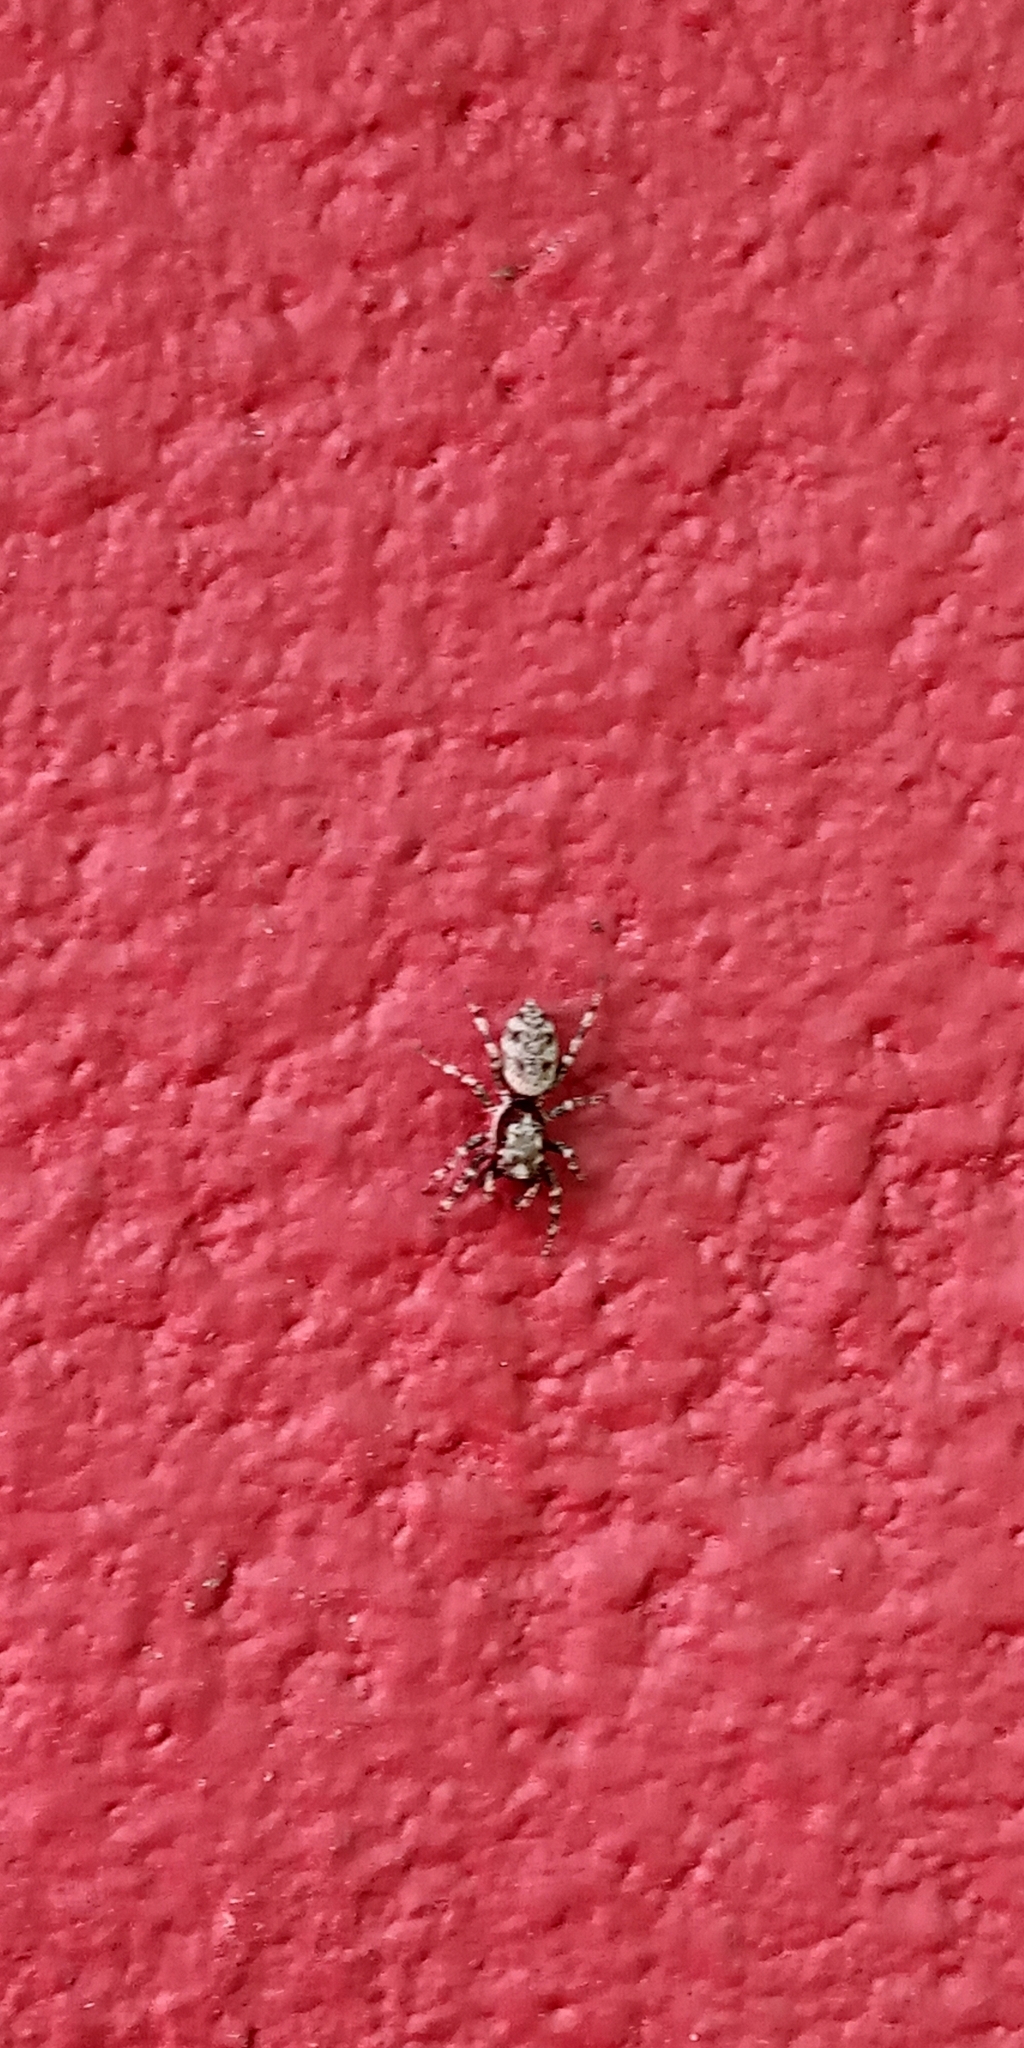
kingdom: Animalia
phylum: Arthropoda
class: Arachnida
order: Araneae
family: Salticidae
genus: Salticus
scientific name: Salticus mutabilis
